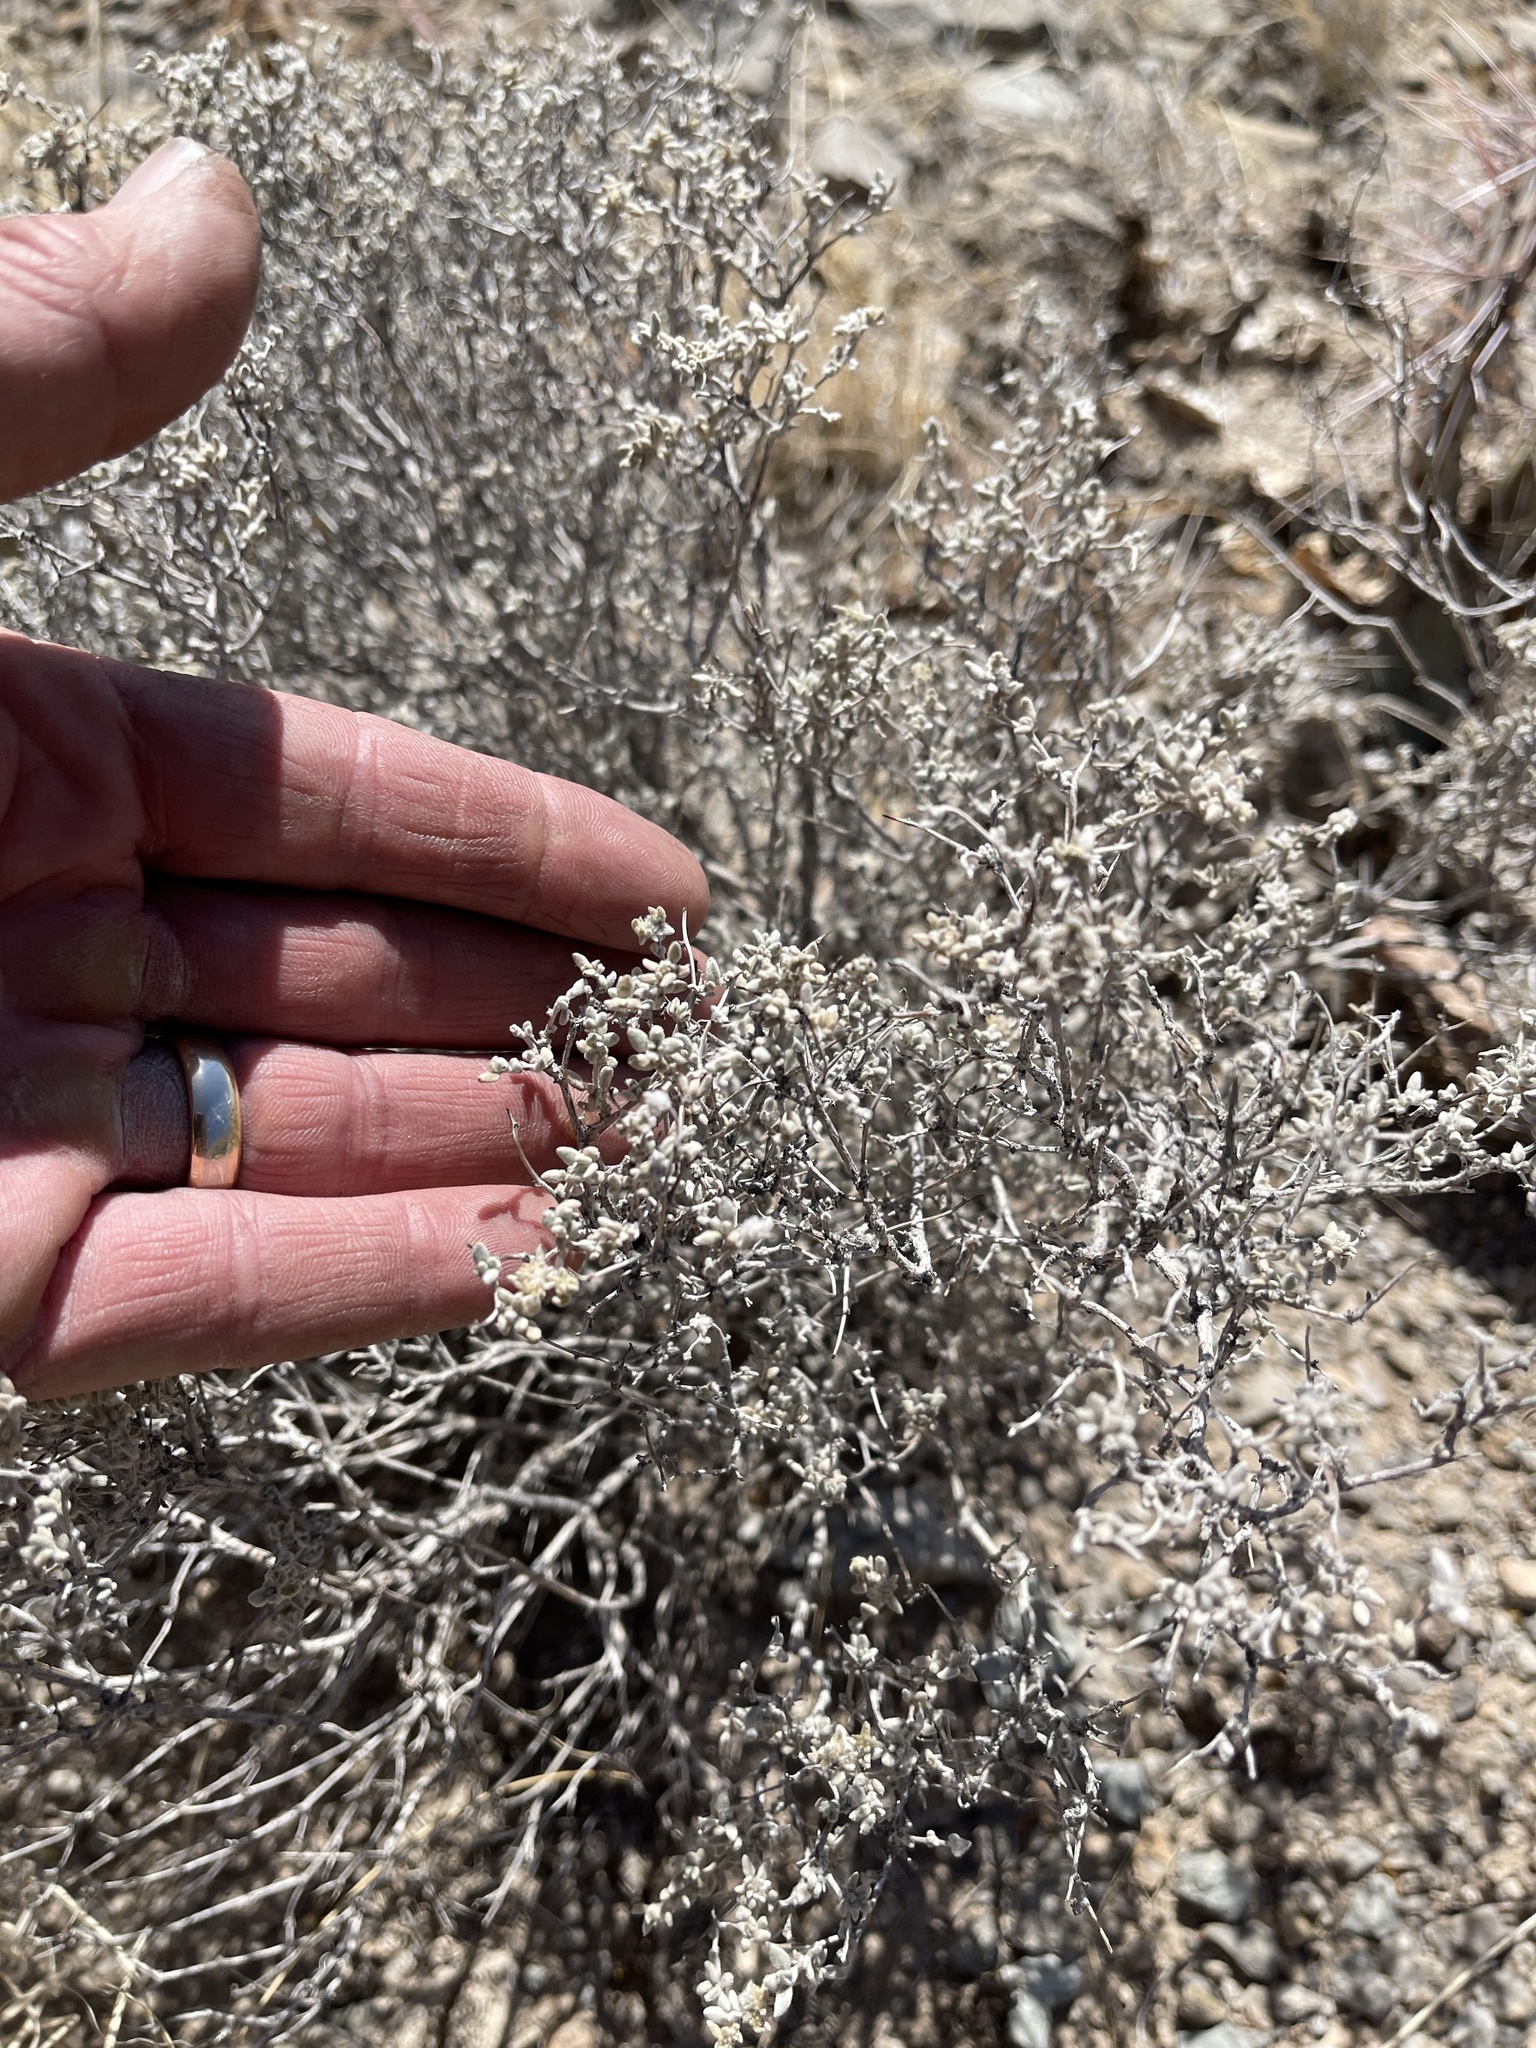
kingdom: Plantae
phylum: Tracheophyta
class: Magnoliopsida
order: Boraginales
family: Ehretiaceae
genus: Tiquilia
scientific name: Tiquilia greggii
